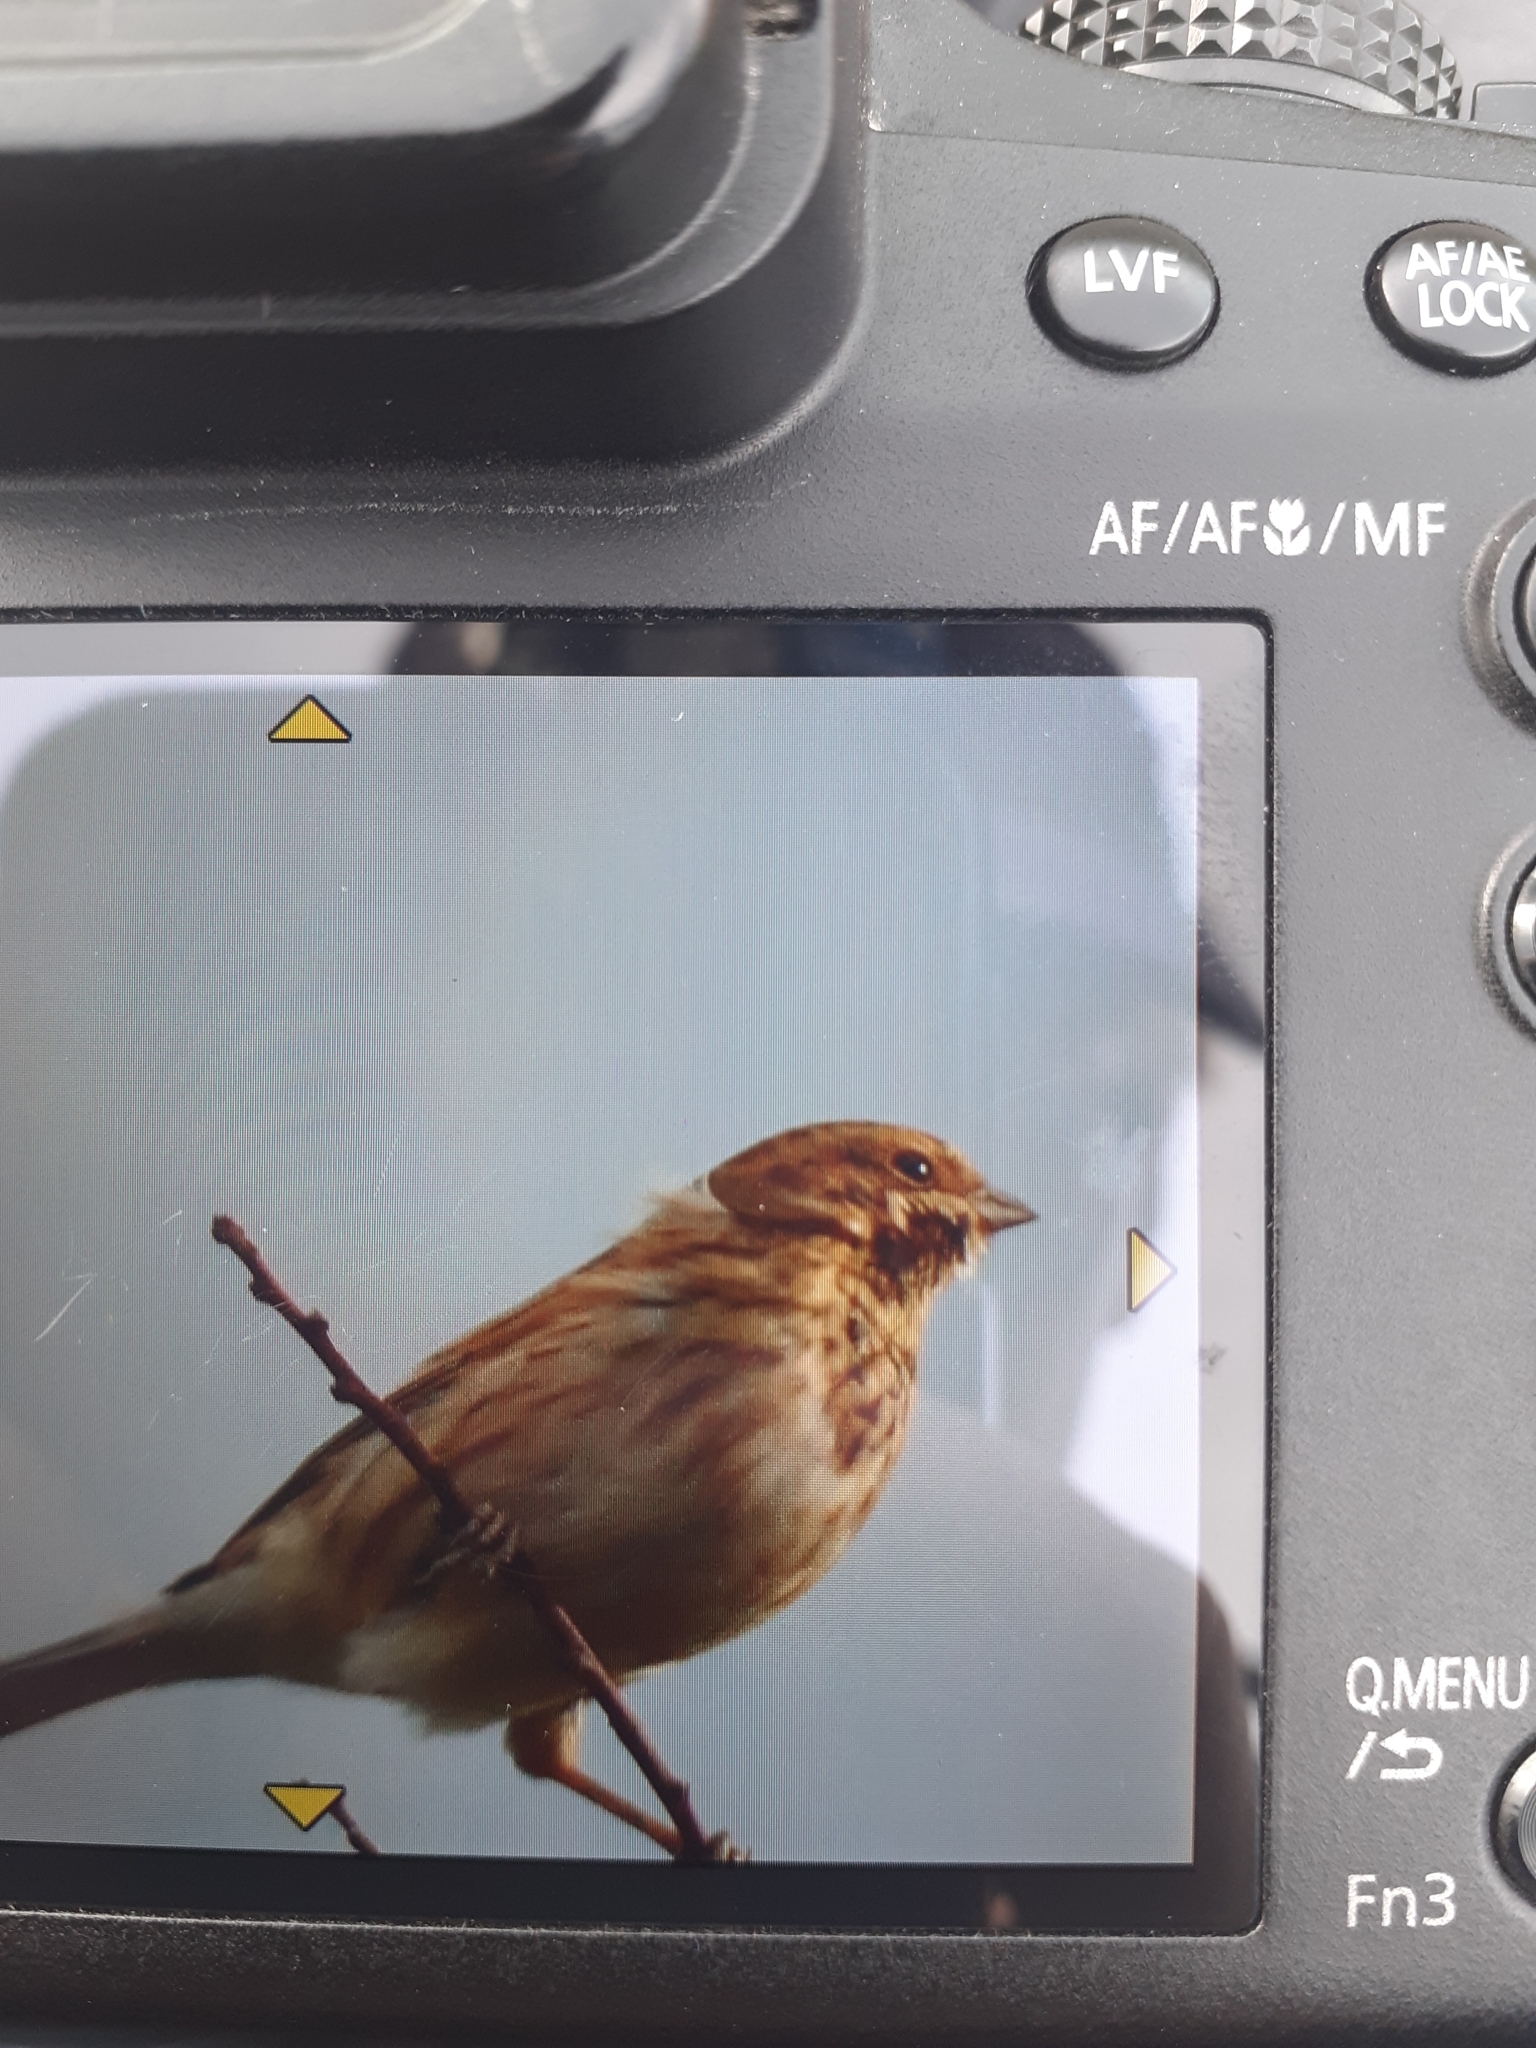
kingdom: Animalia
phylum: Chordata
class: Aves
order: Passeriformes
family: Emberizidae
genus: Emberiza
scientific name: Emberiza schoeniclus
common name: Reed bunting
